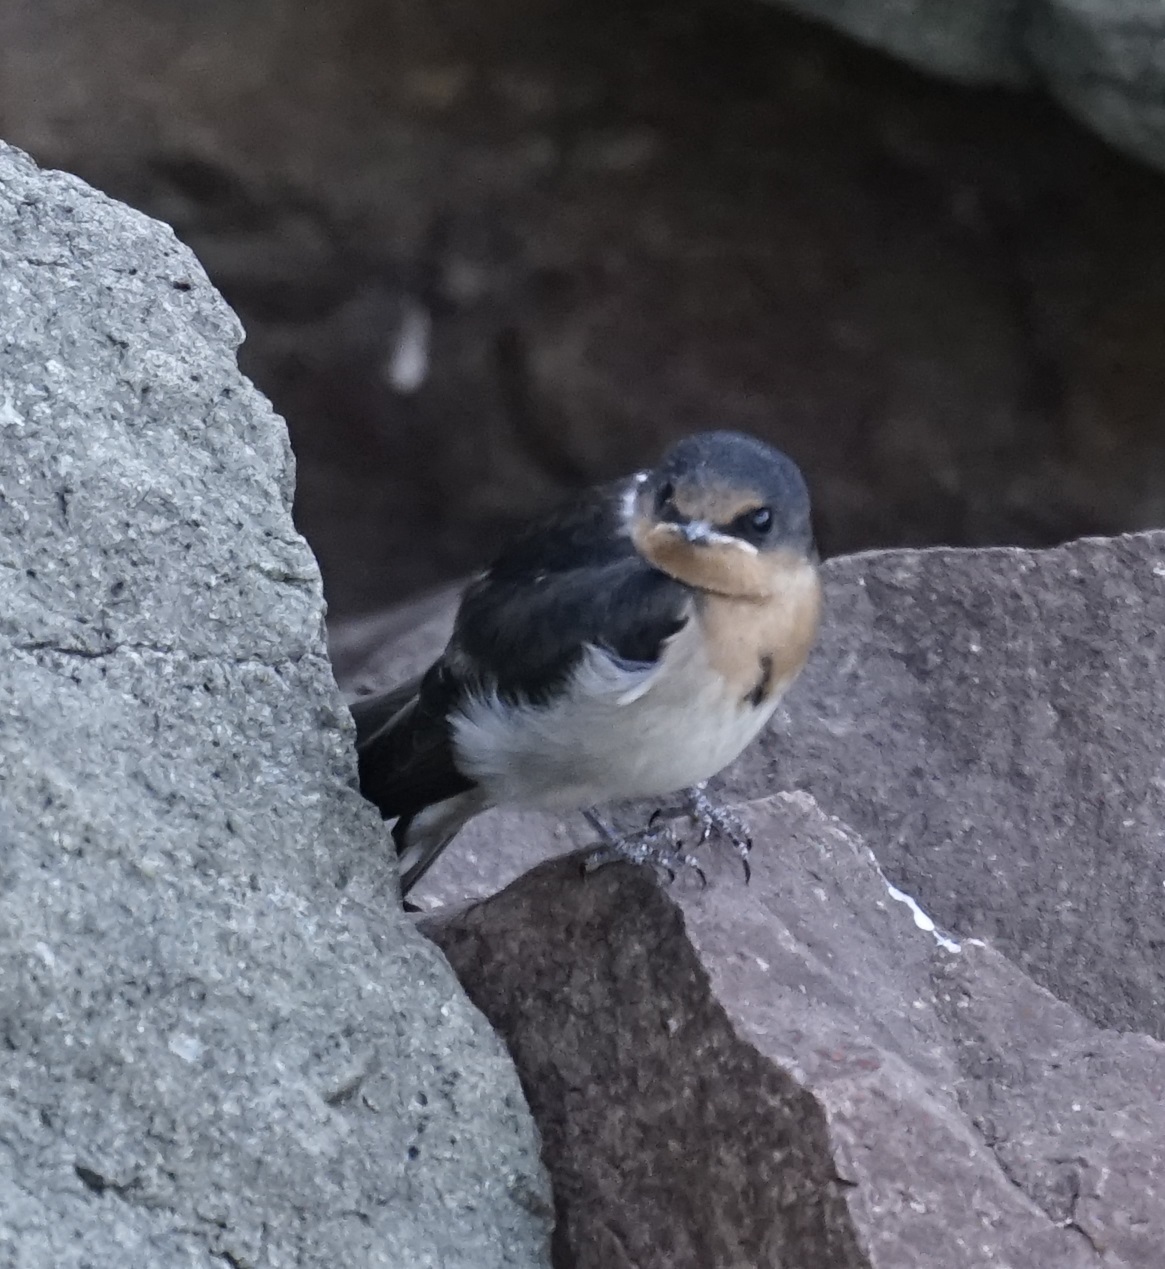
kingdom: Animalia
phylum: Chordata
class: Aves
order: Passeriformes
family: Hirundinidae
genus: Hirundo
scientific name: Hirundo neoxena
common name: Welcome swallow
